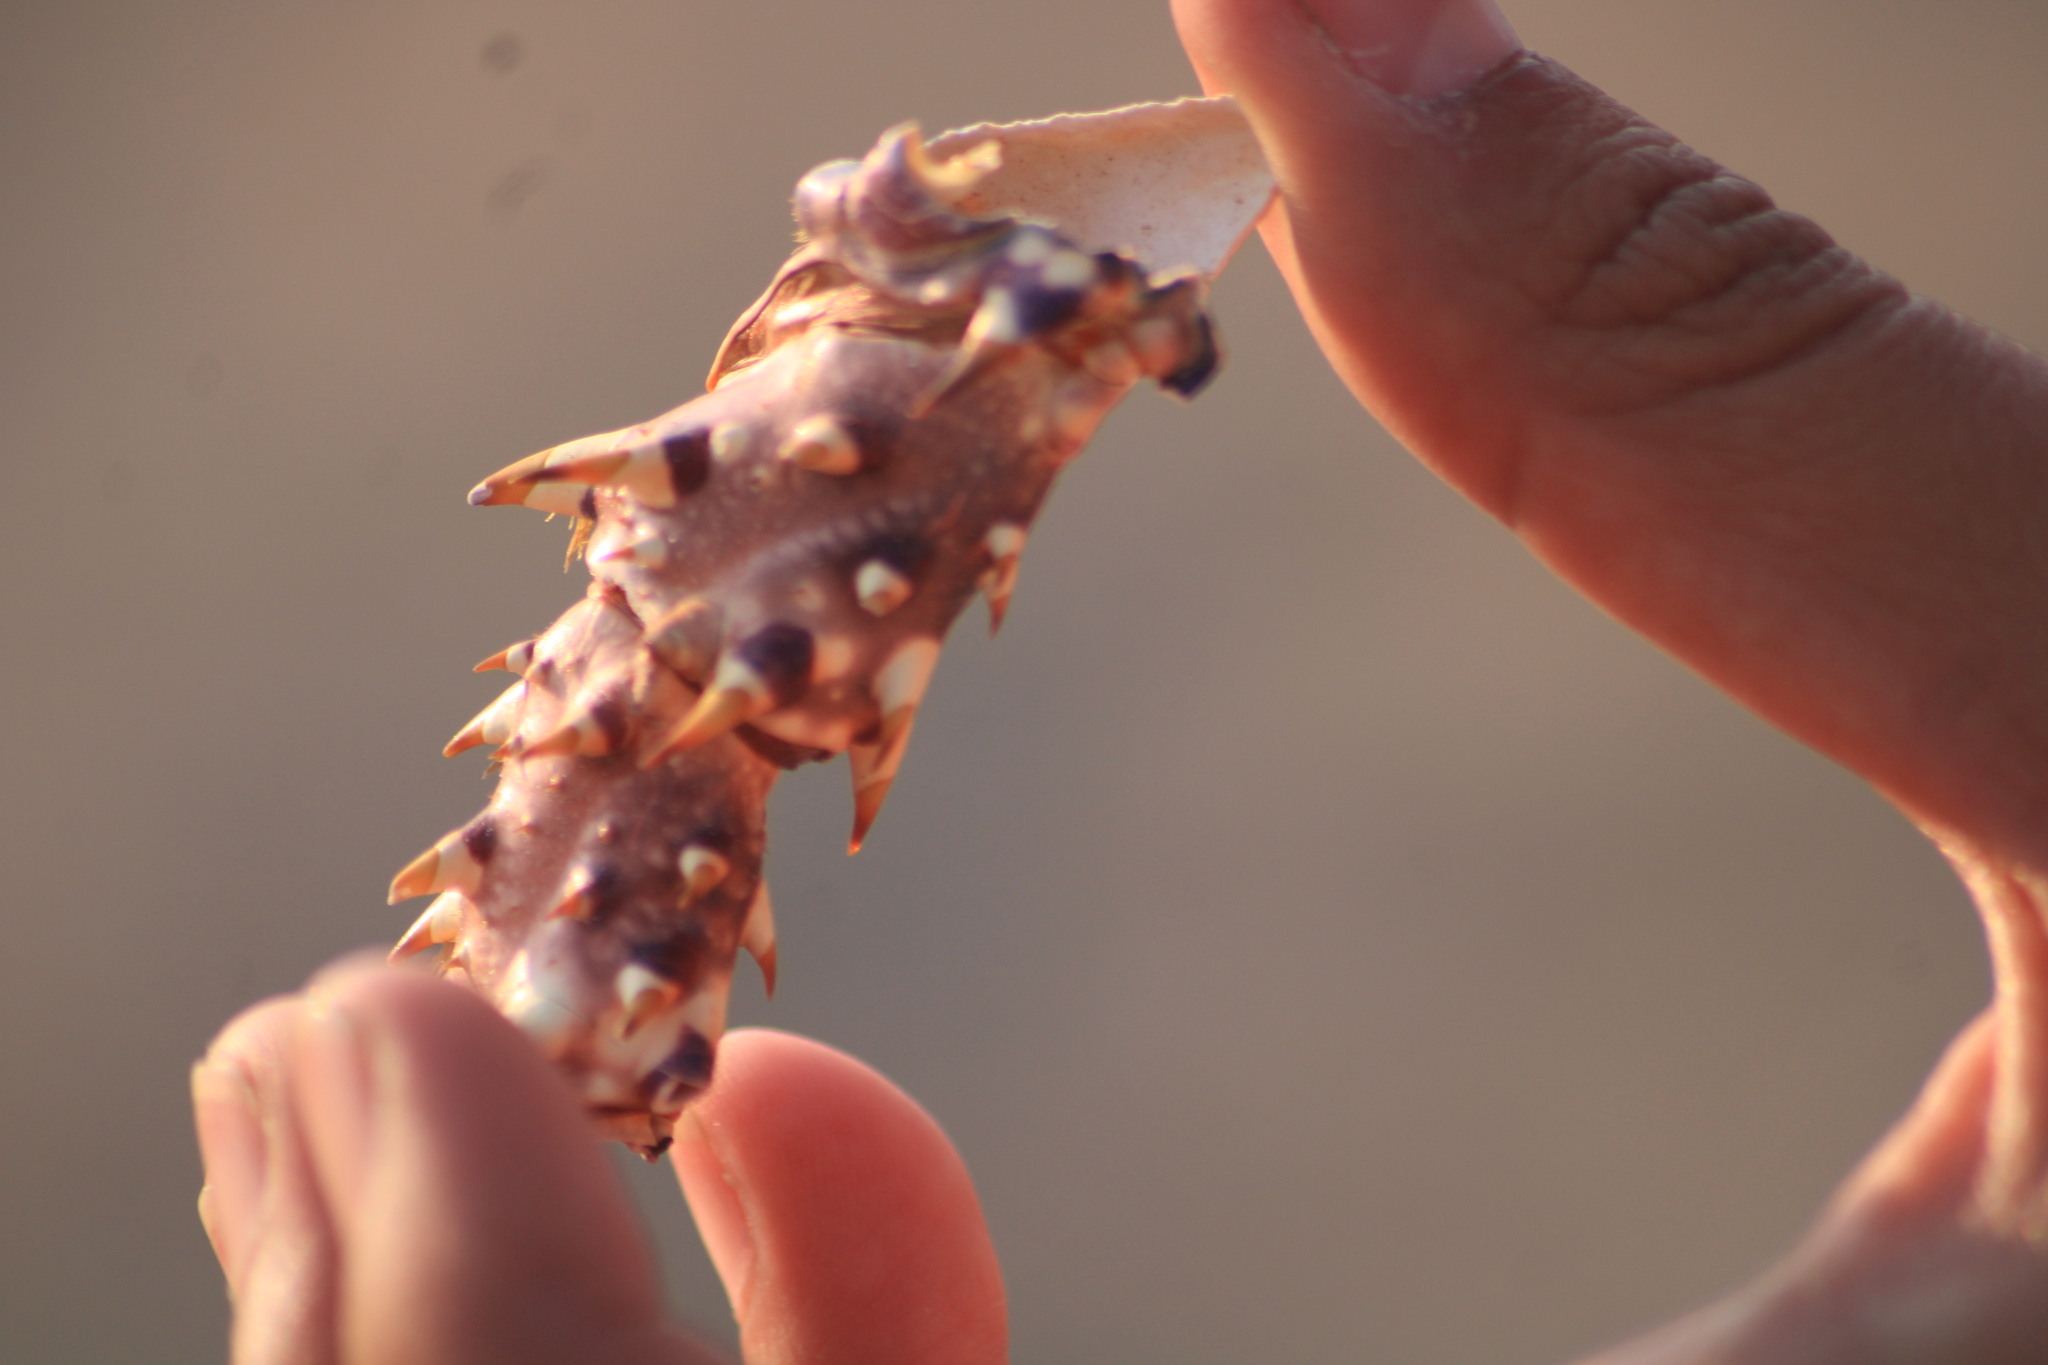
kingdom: Animalia
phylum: Arthropoda
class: Malacostraca
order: Decapoda
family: Palinuridae
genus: Panulirus
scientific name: Panulirus inflatus
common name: Blue spiny lobster
